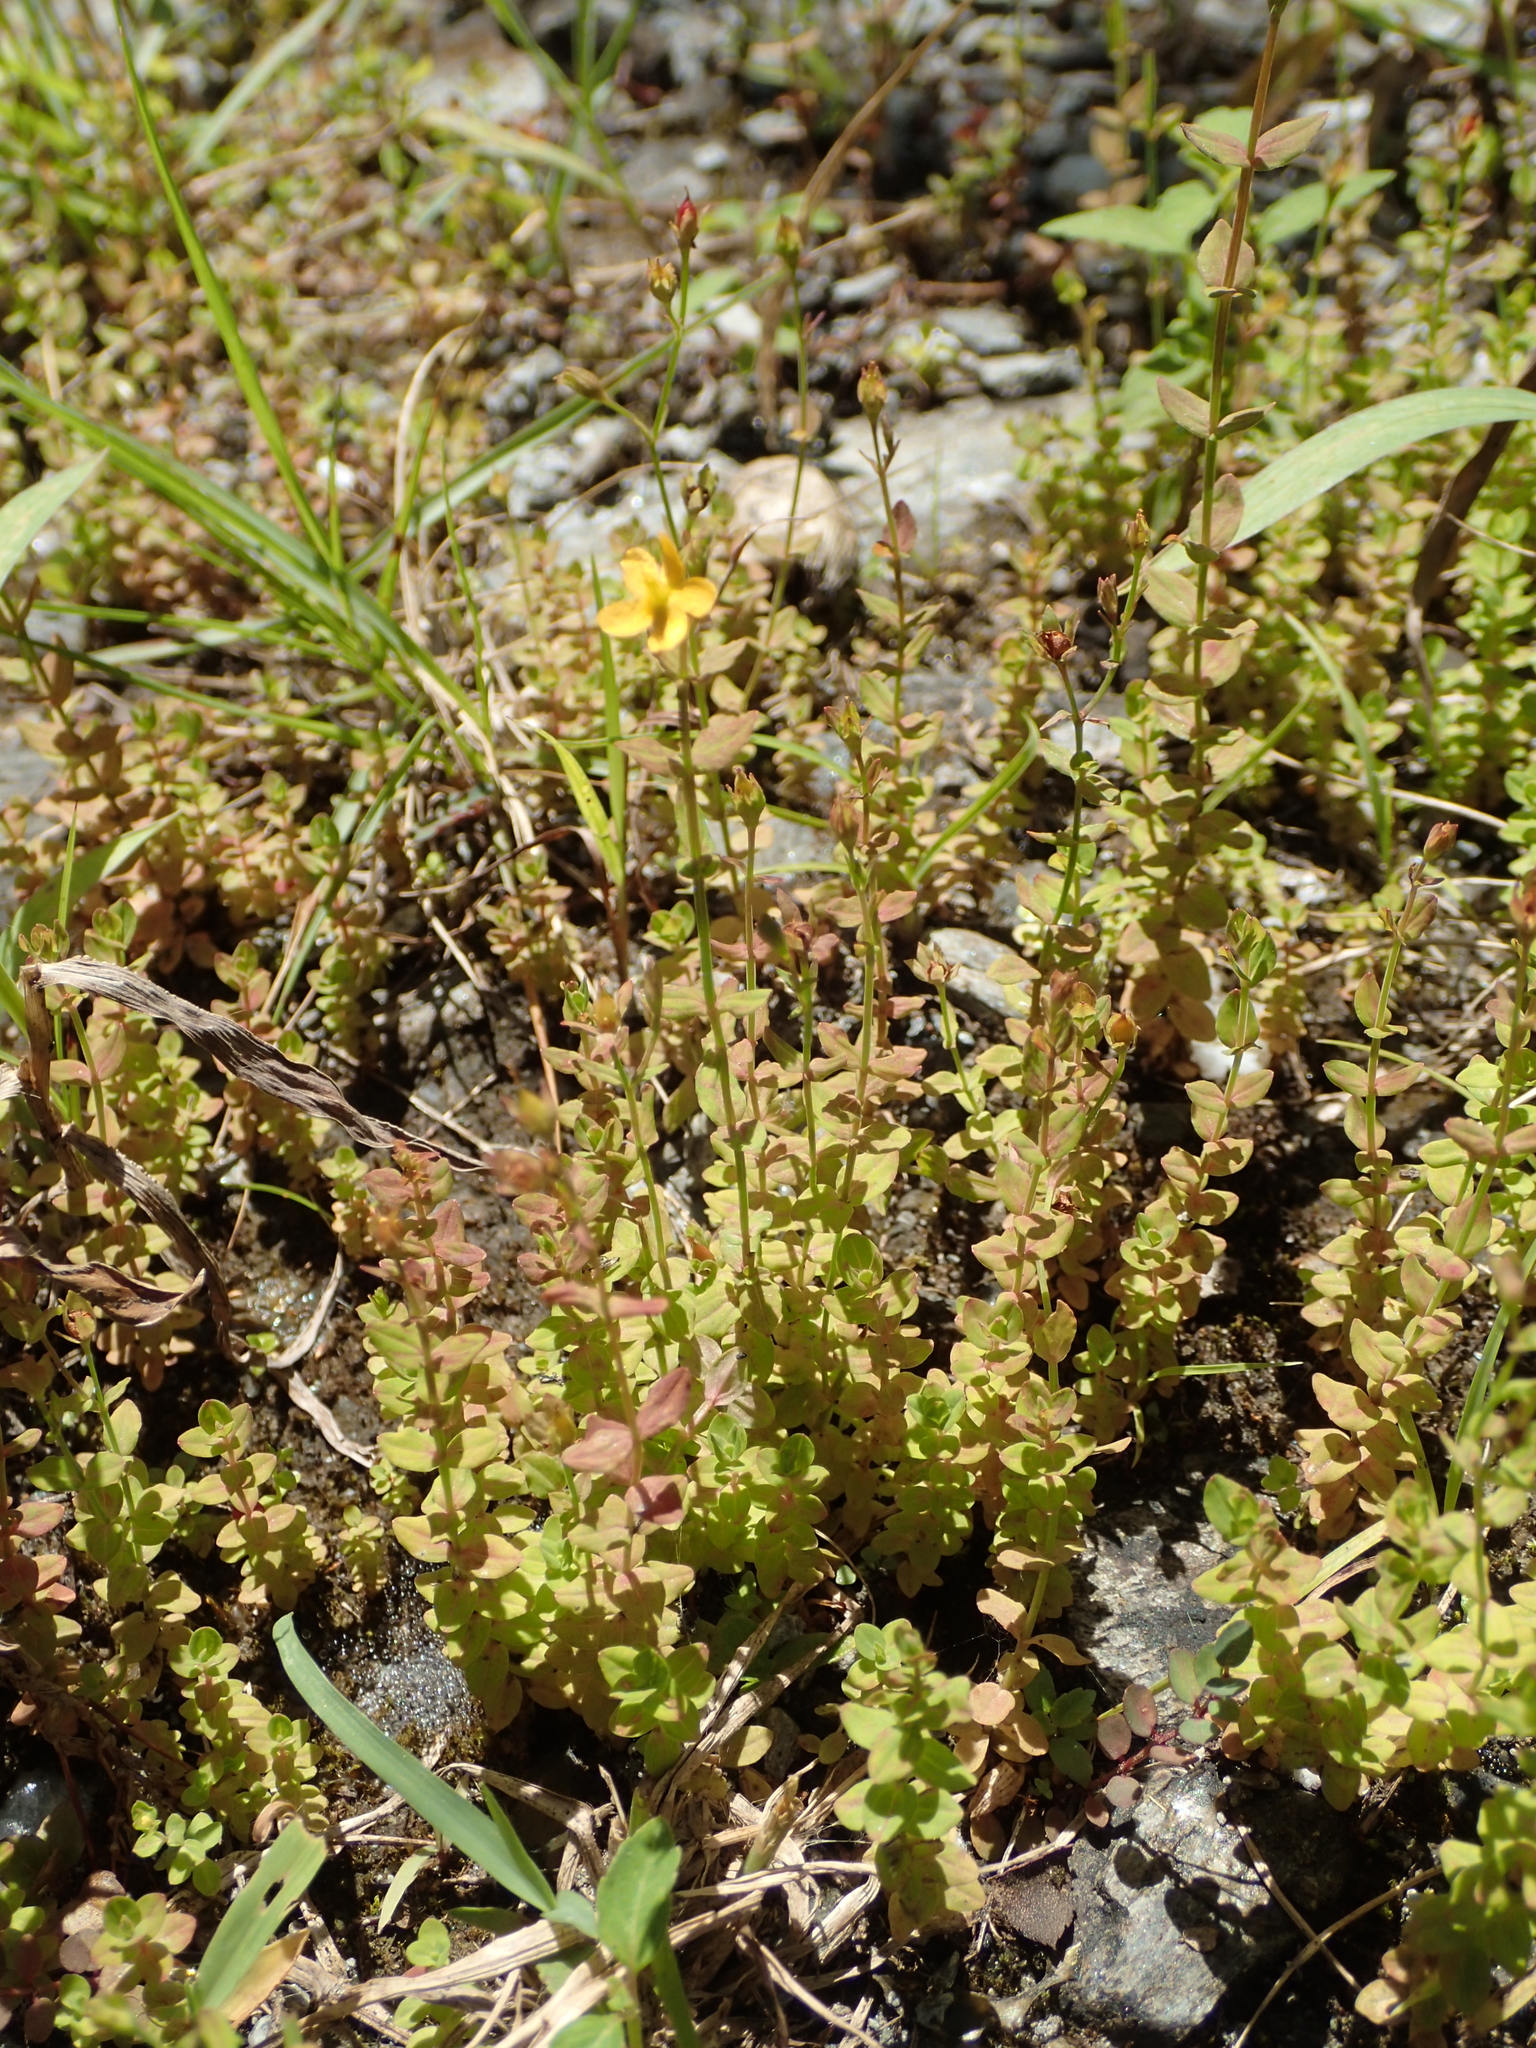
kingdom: Plantae
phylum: Tracheophyta
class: Magnoliopsida
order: Malpighiales
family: Hypericaceae
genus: Hypericum
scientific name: Hypericum japonicum
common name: Matted st. john's-wort
